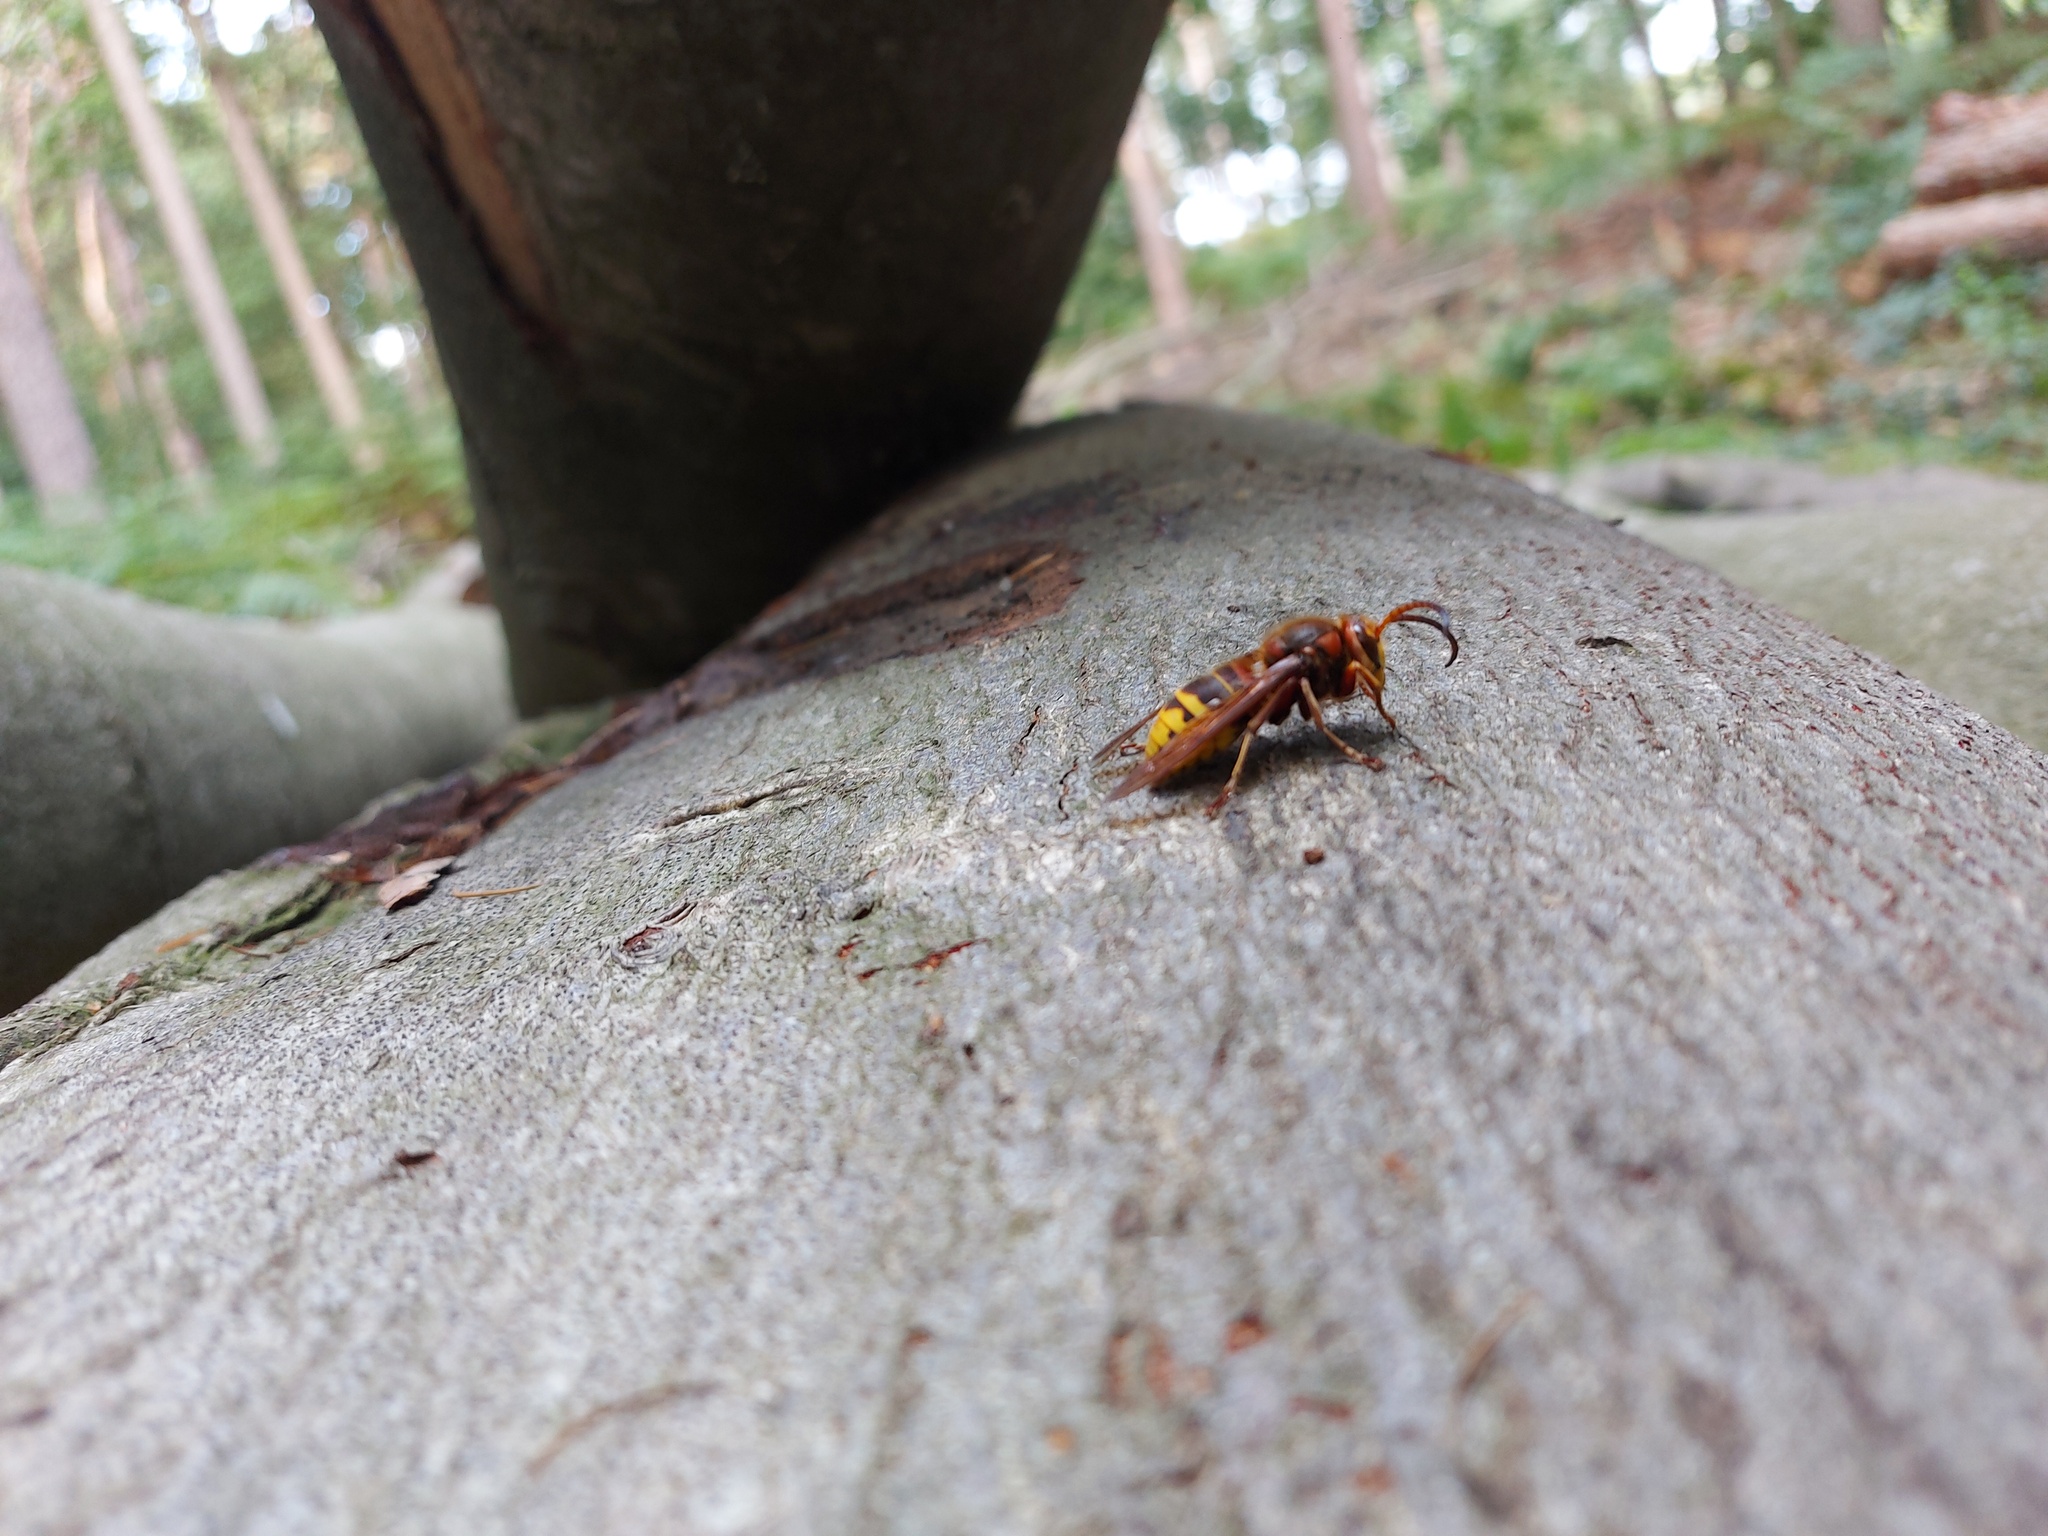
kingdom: Animalia
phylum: Arthropoda
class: Insecta
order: Hymenoptera
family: Vespidae
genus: Vespa
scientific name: Vespa crabro
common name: Hornet
